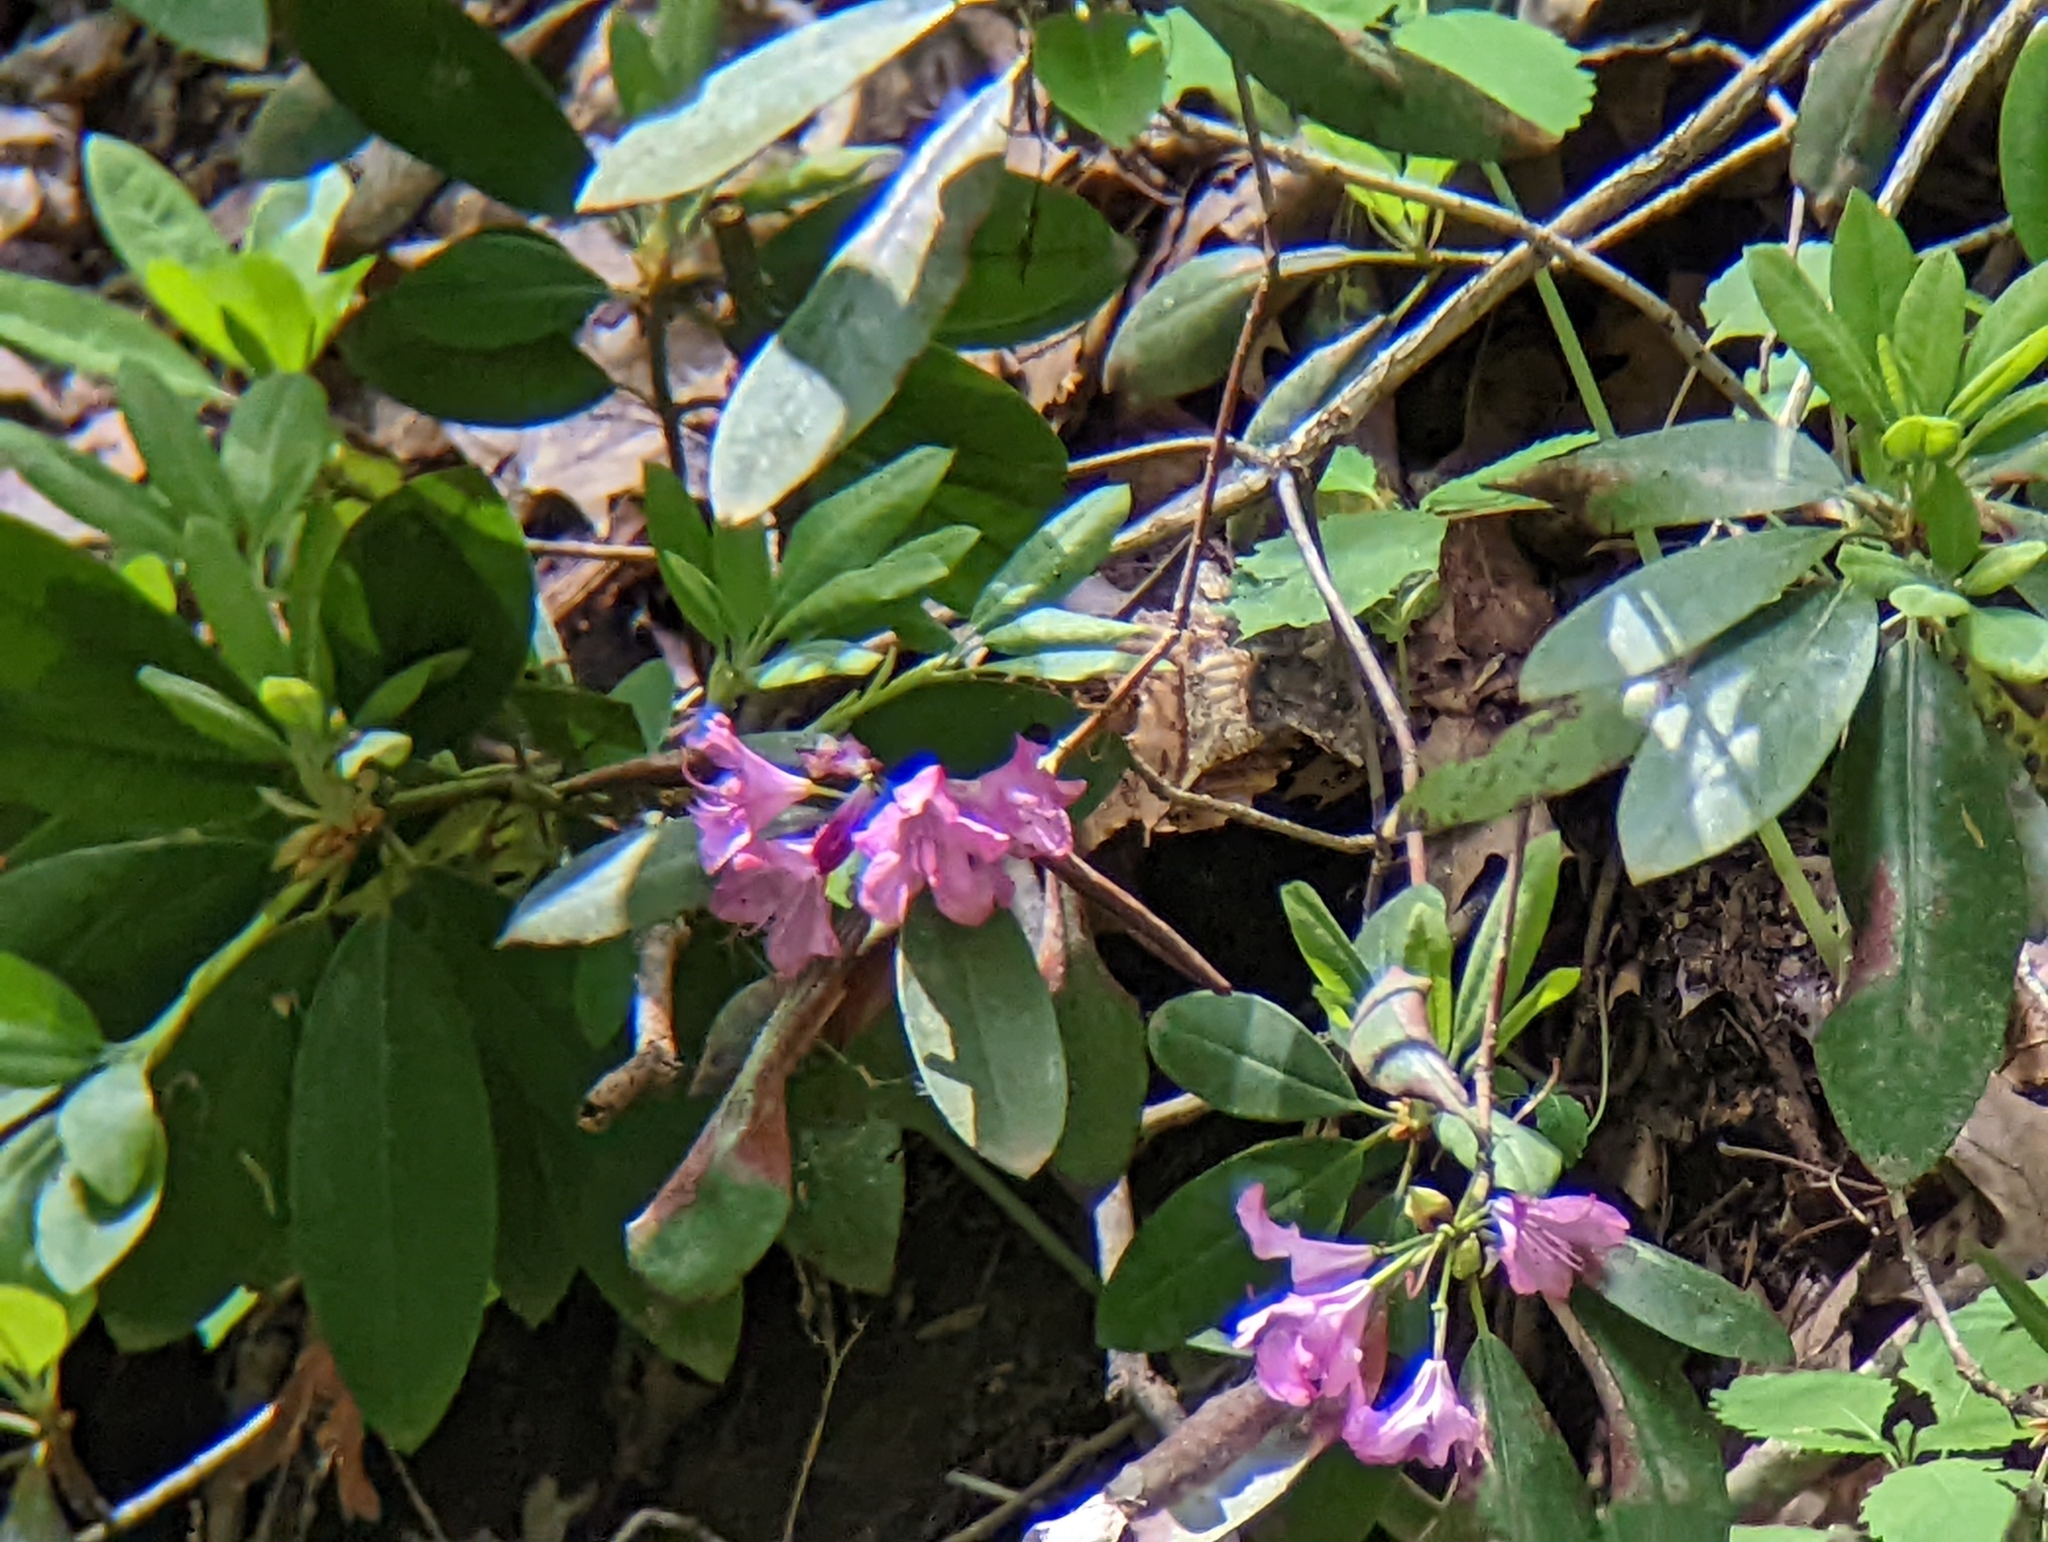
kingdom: Plantae
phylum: Tracheophyta
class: Magnoliopsida
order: Ericales
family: Ericaceae
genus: Rhododendron
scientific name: Rhododendron hybridum
